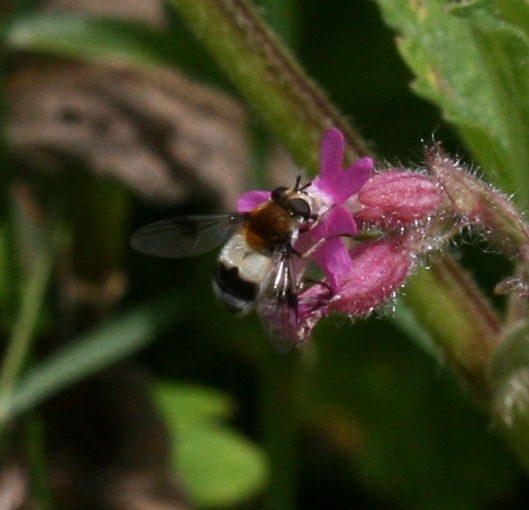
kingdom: Animalia
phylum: Arthropoda
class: Insecta
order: Diptera
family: Syrphidae
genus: Leucozona
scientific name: Leucozona lucorum
